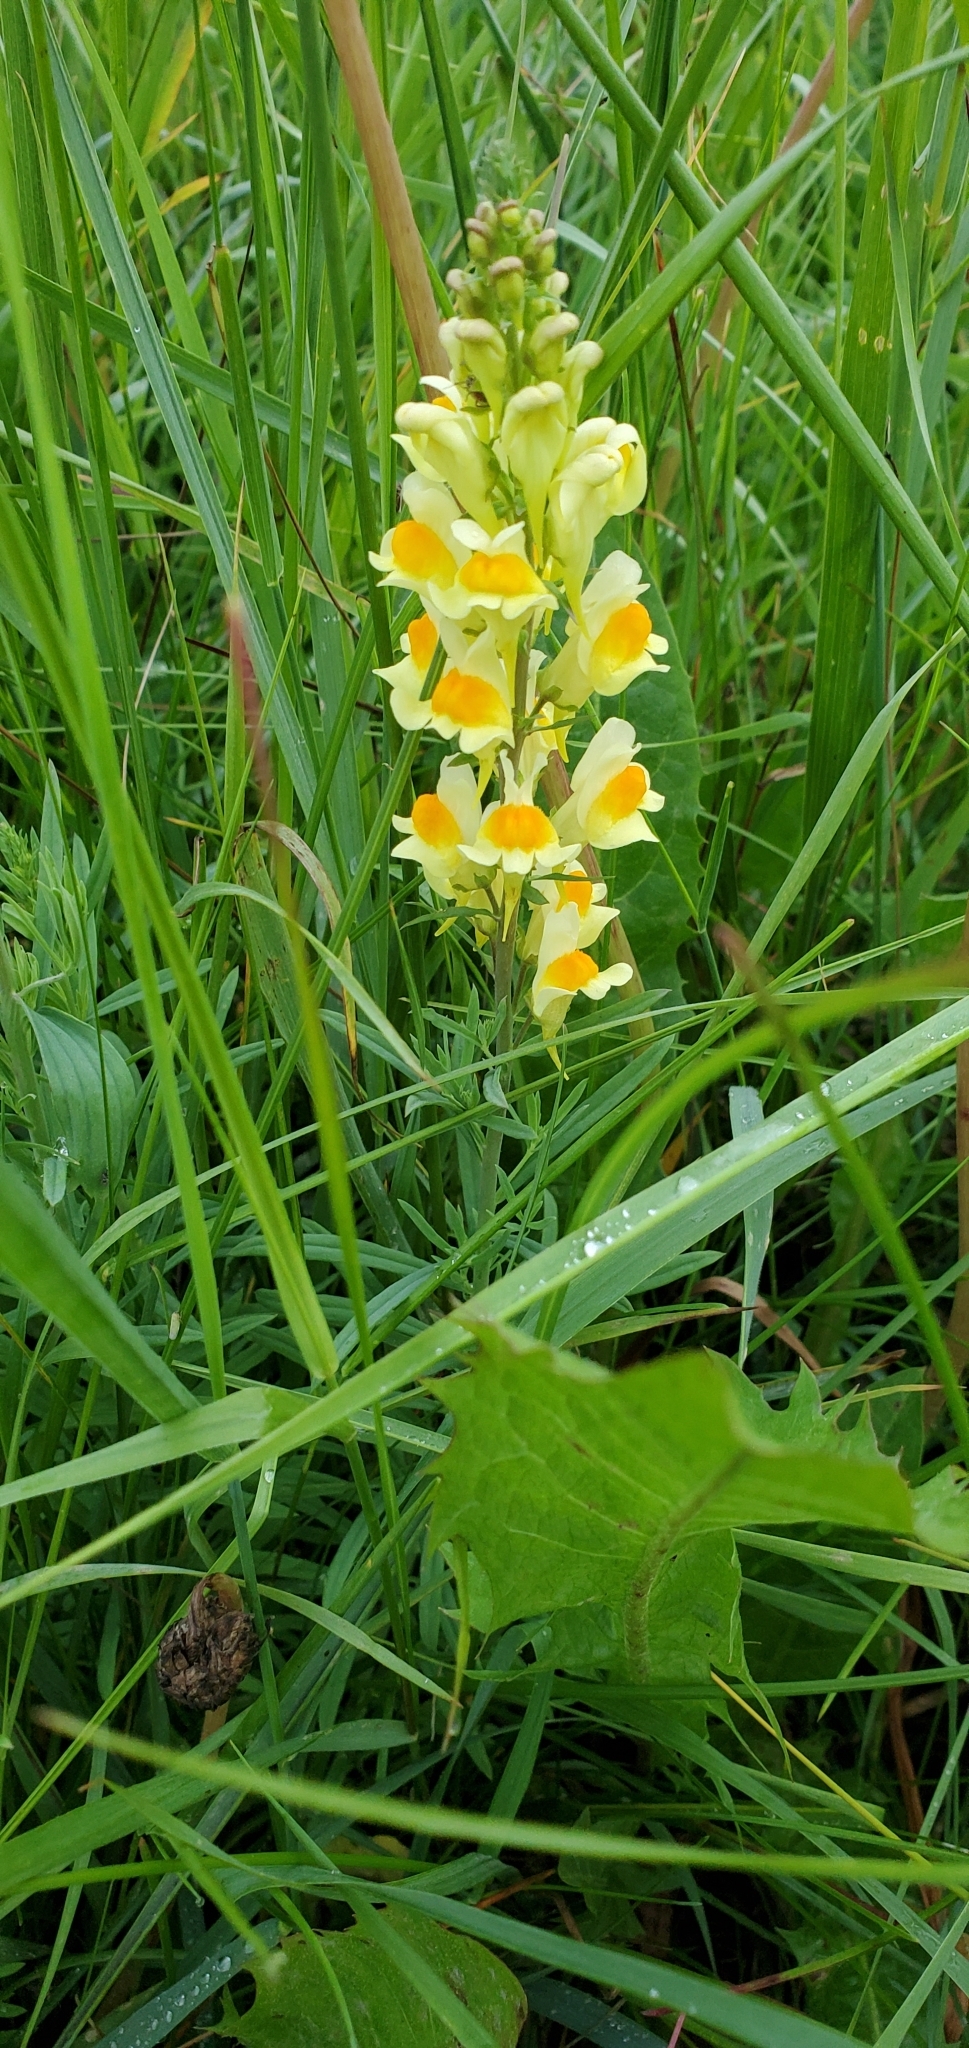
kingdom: Plantae
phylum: Tracheophyta
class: Magnoliopsida
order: Lamiales
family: Plantaginaceae
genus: Linaria
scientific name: Linaria vulgaris
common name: Butter and eggs
